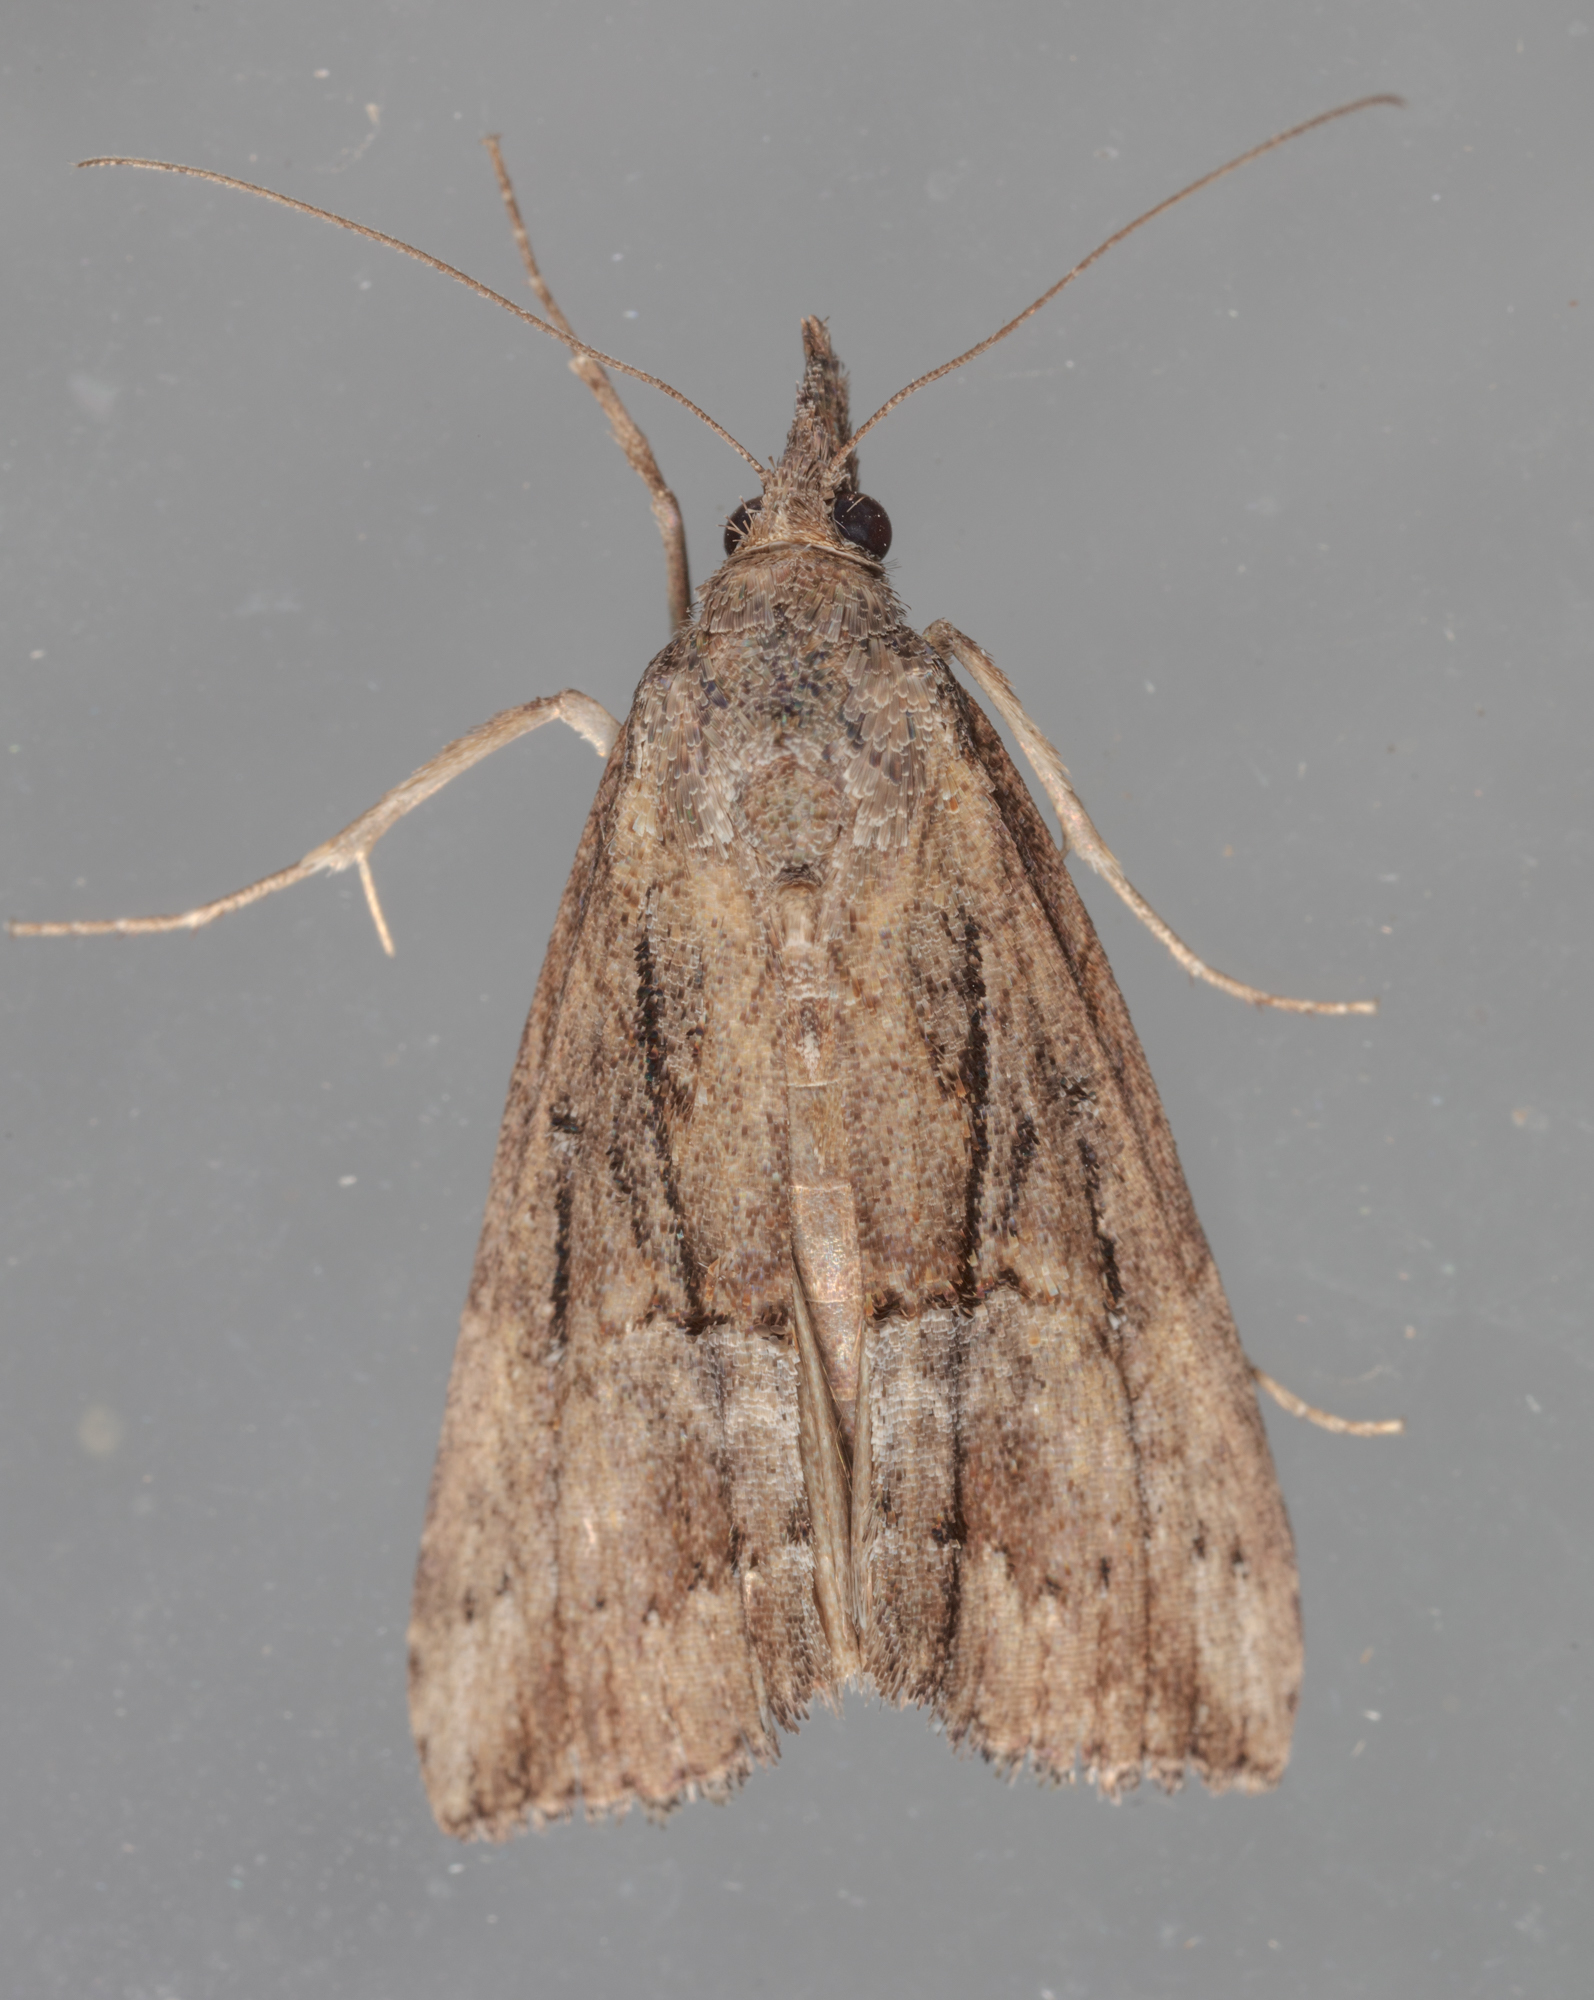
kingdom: Animalia
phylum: Arthropoda
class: Insecta
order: Lepidoptera
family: Erebidae
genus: Hypena
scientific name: Hypena scabra
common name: Green cloverworm
